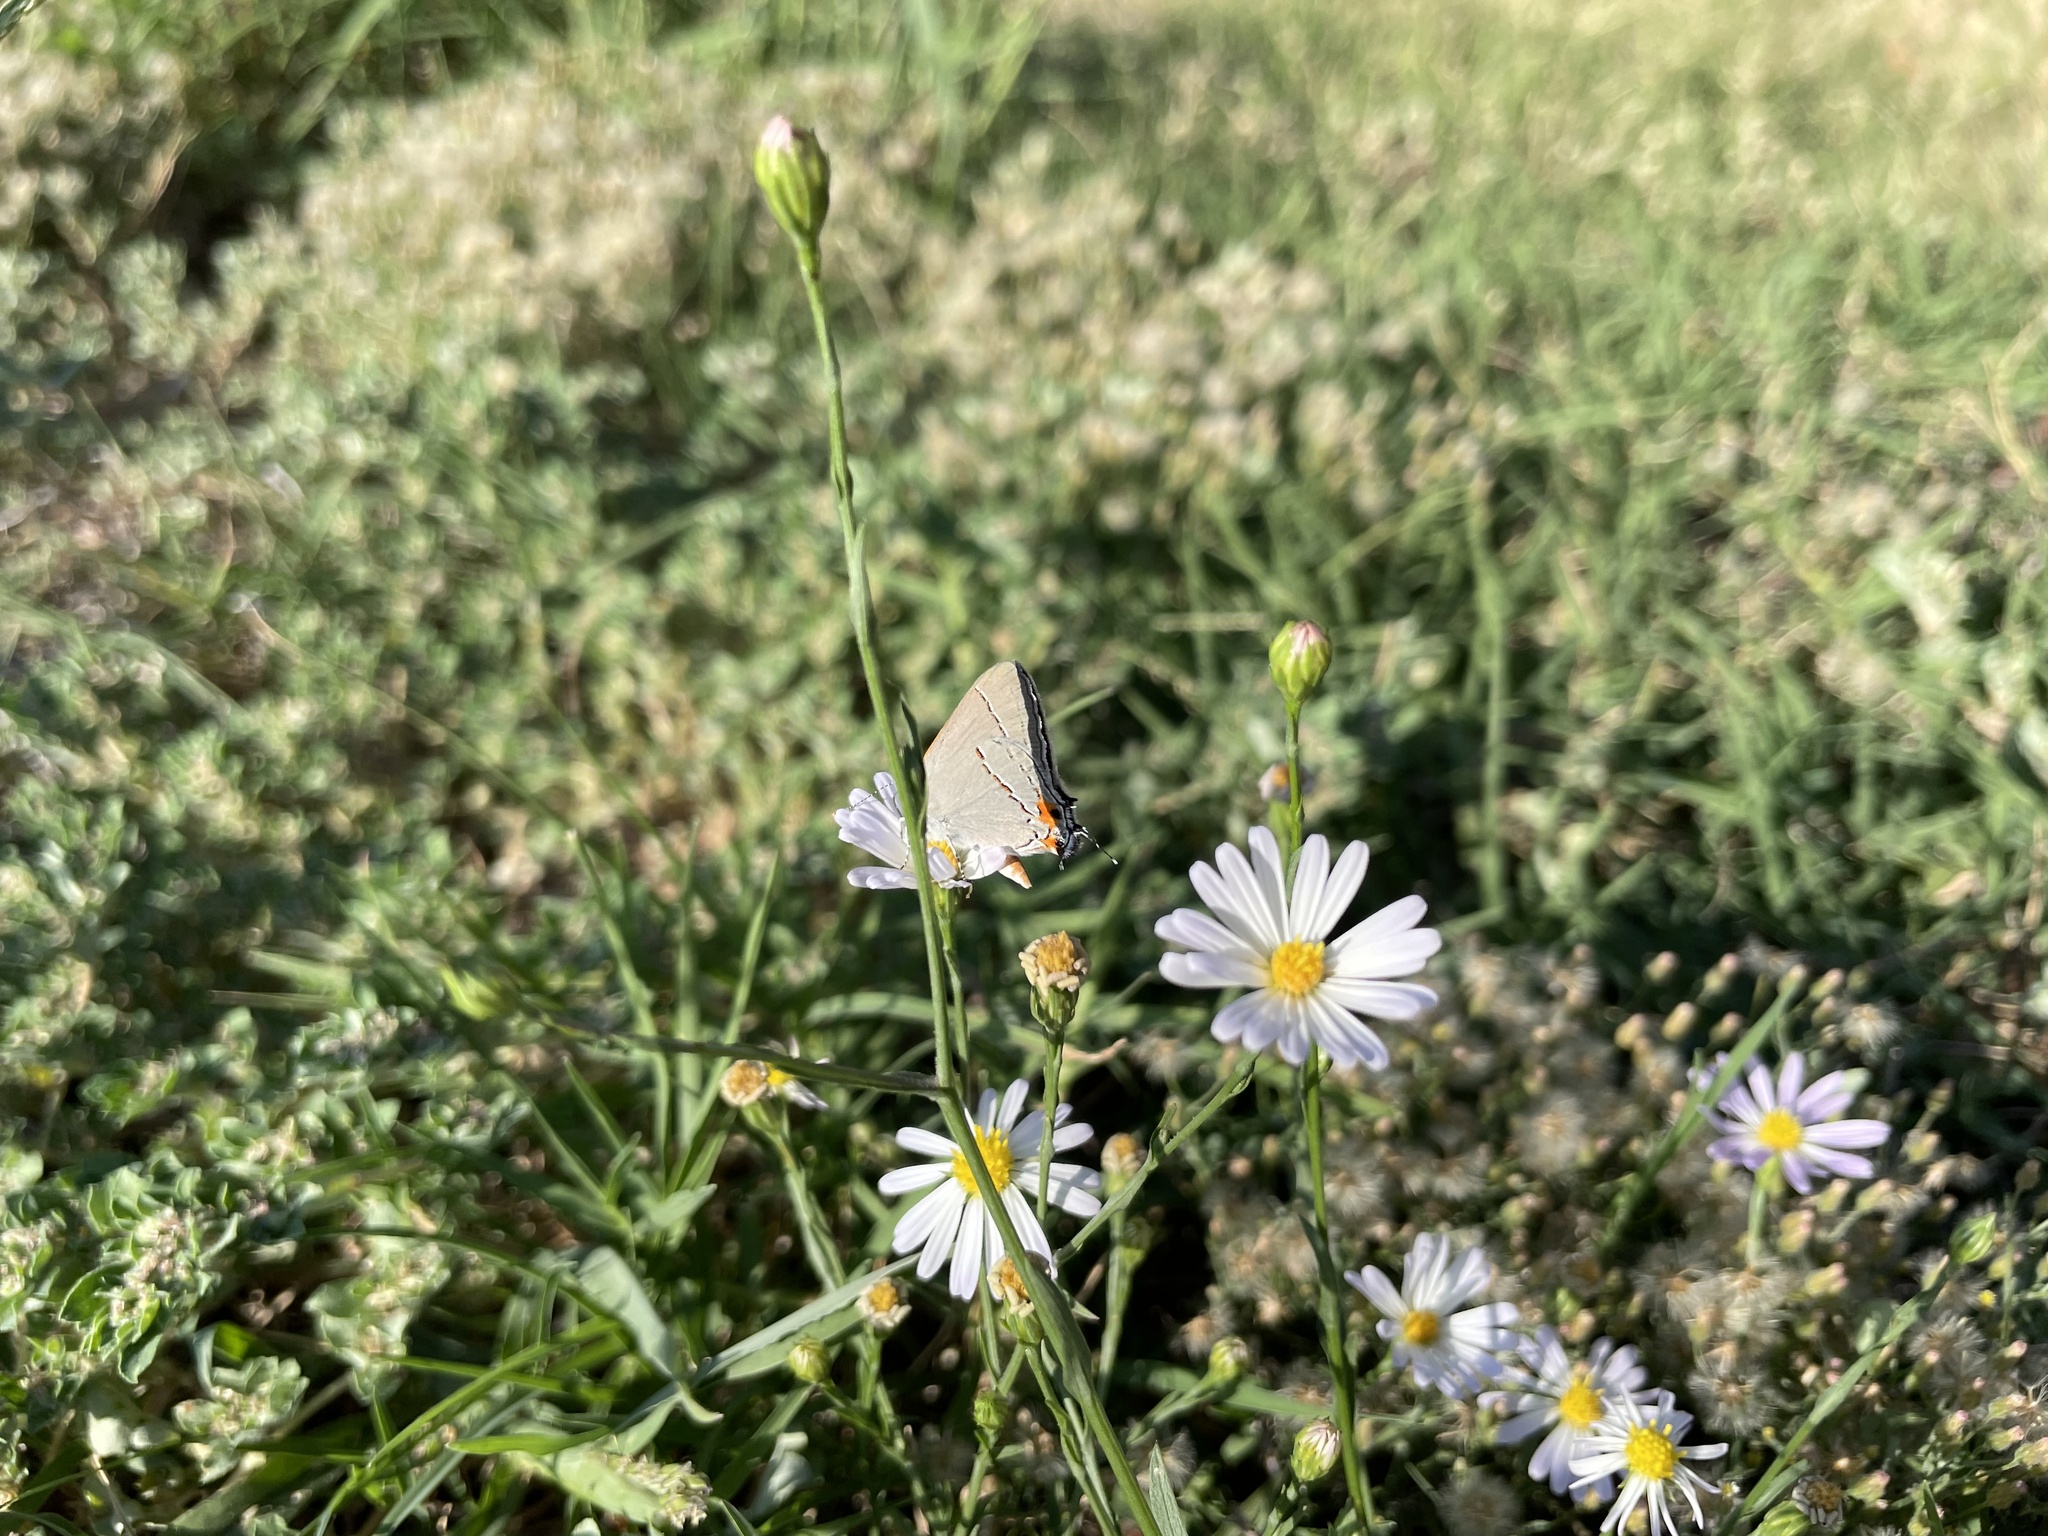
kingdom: Animalia
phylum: Arthropoda
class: Insecta
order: Lepidoptera
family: Lycaenidae
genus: Strymon
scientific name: Strymon melinus
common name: Gray hairstreak
